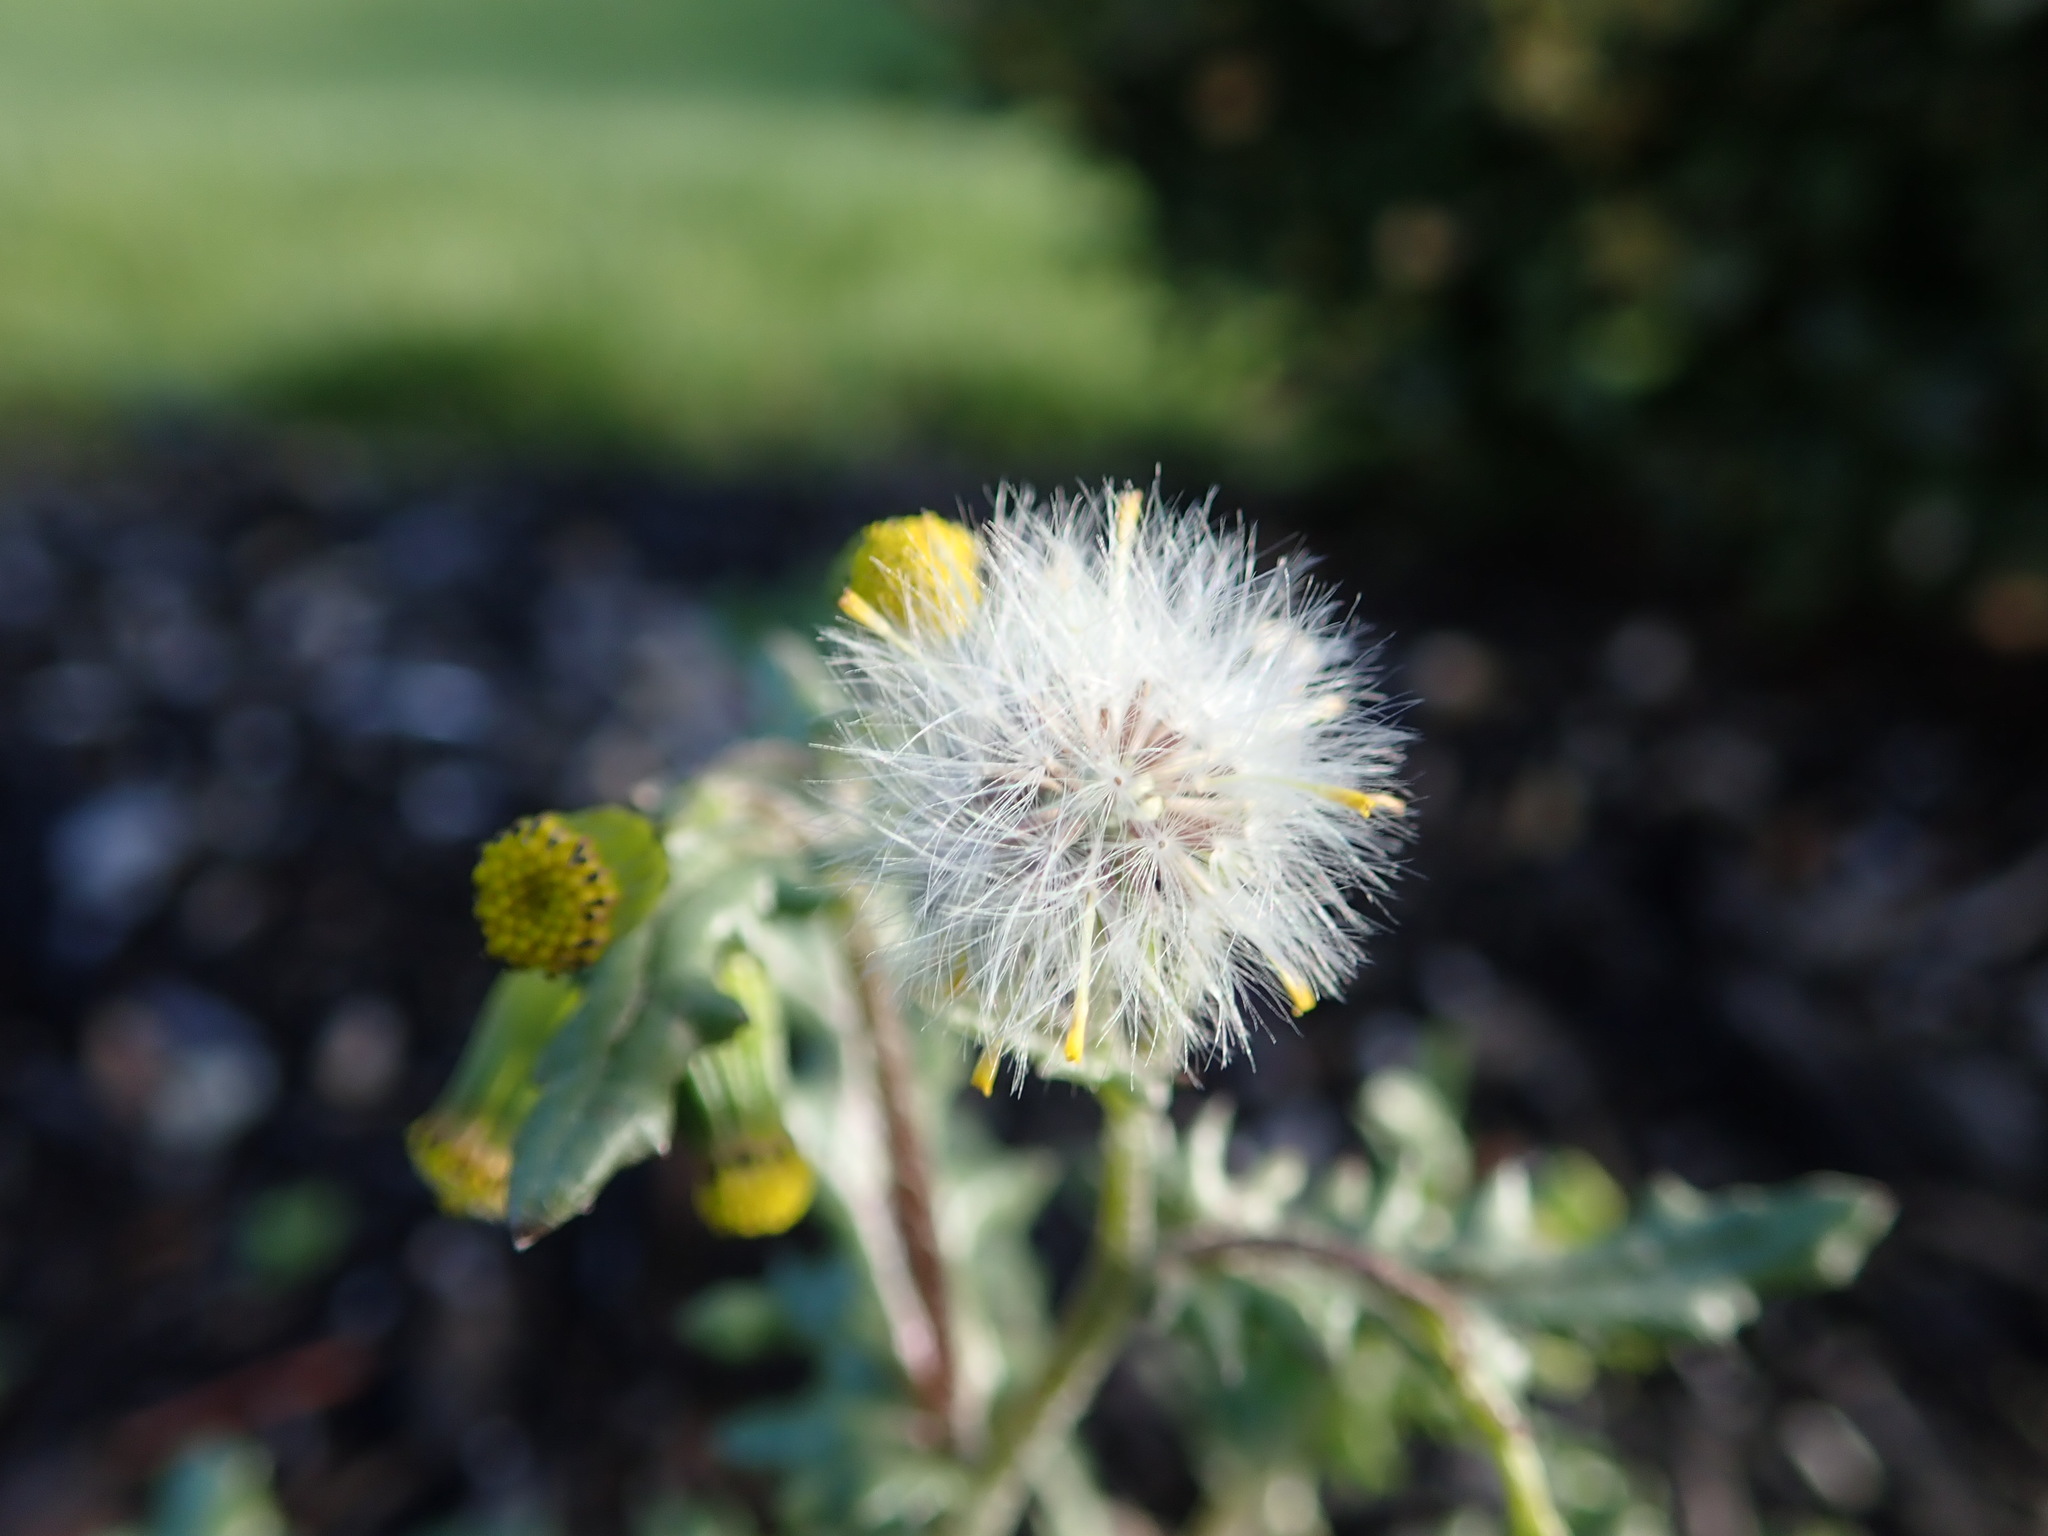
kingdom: Plantae
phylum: Tracheophyta
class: Magnoliopsida
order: Asterales
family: Asteraceae
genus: Senecio
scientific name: Senecio vulgaris
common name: Old-man-in-the-spring
